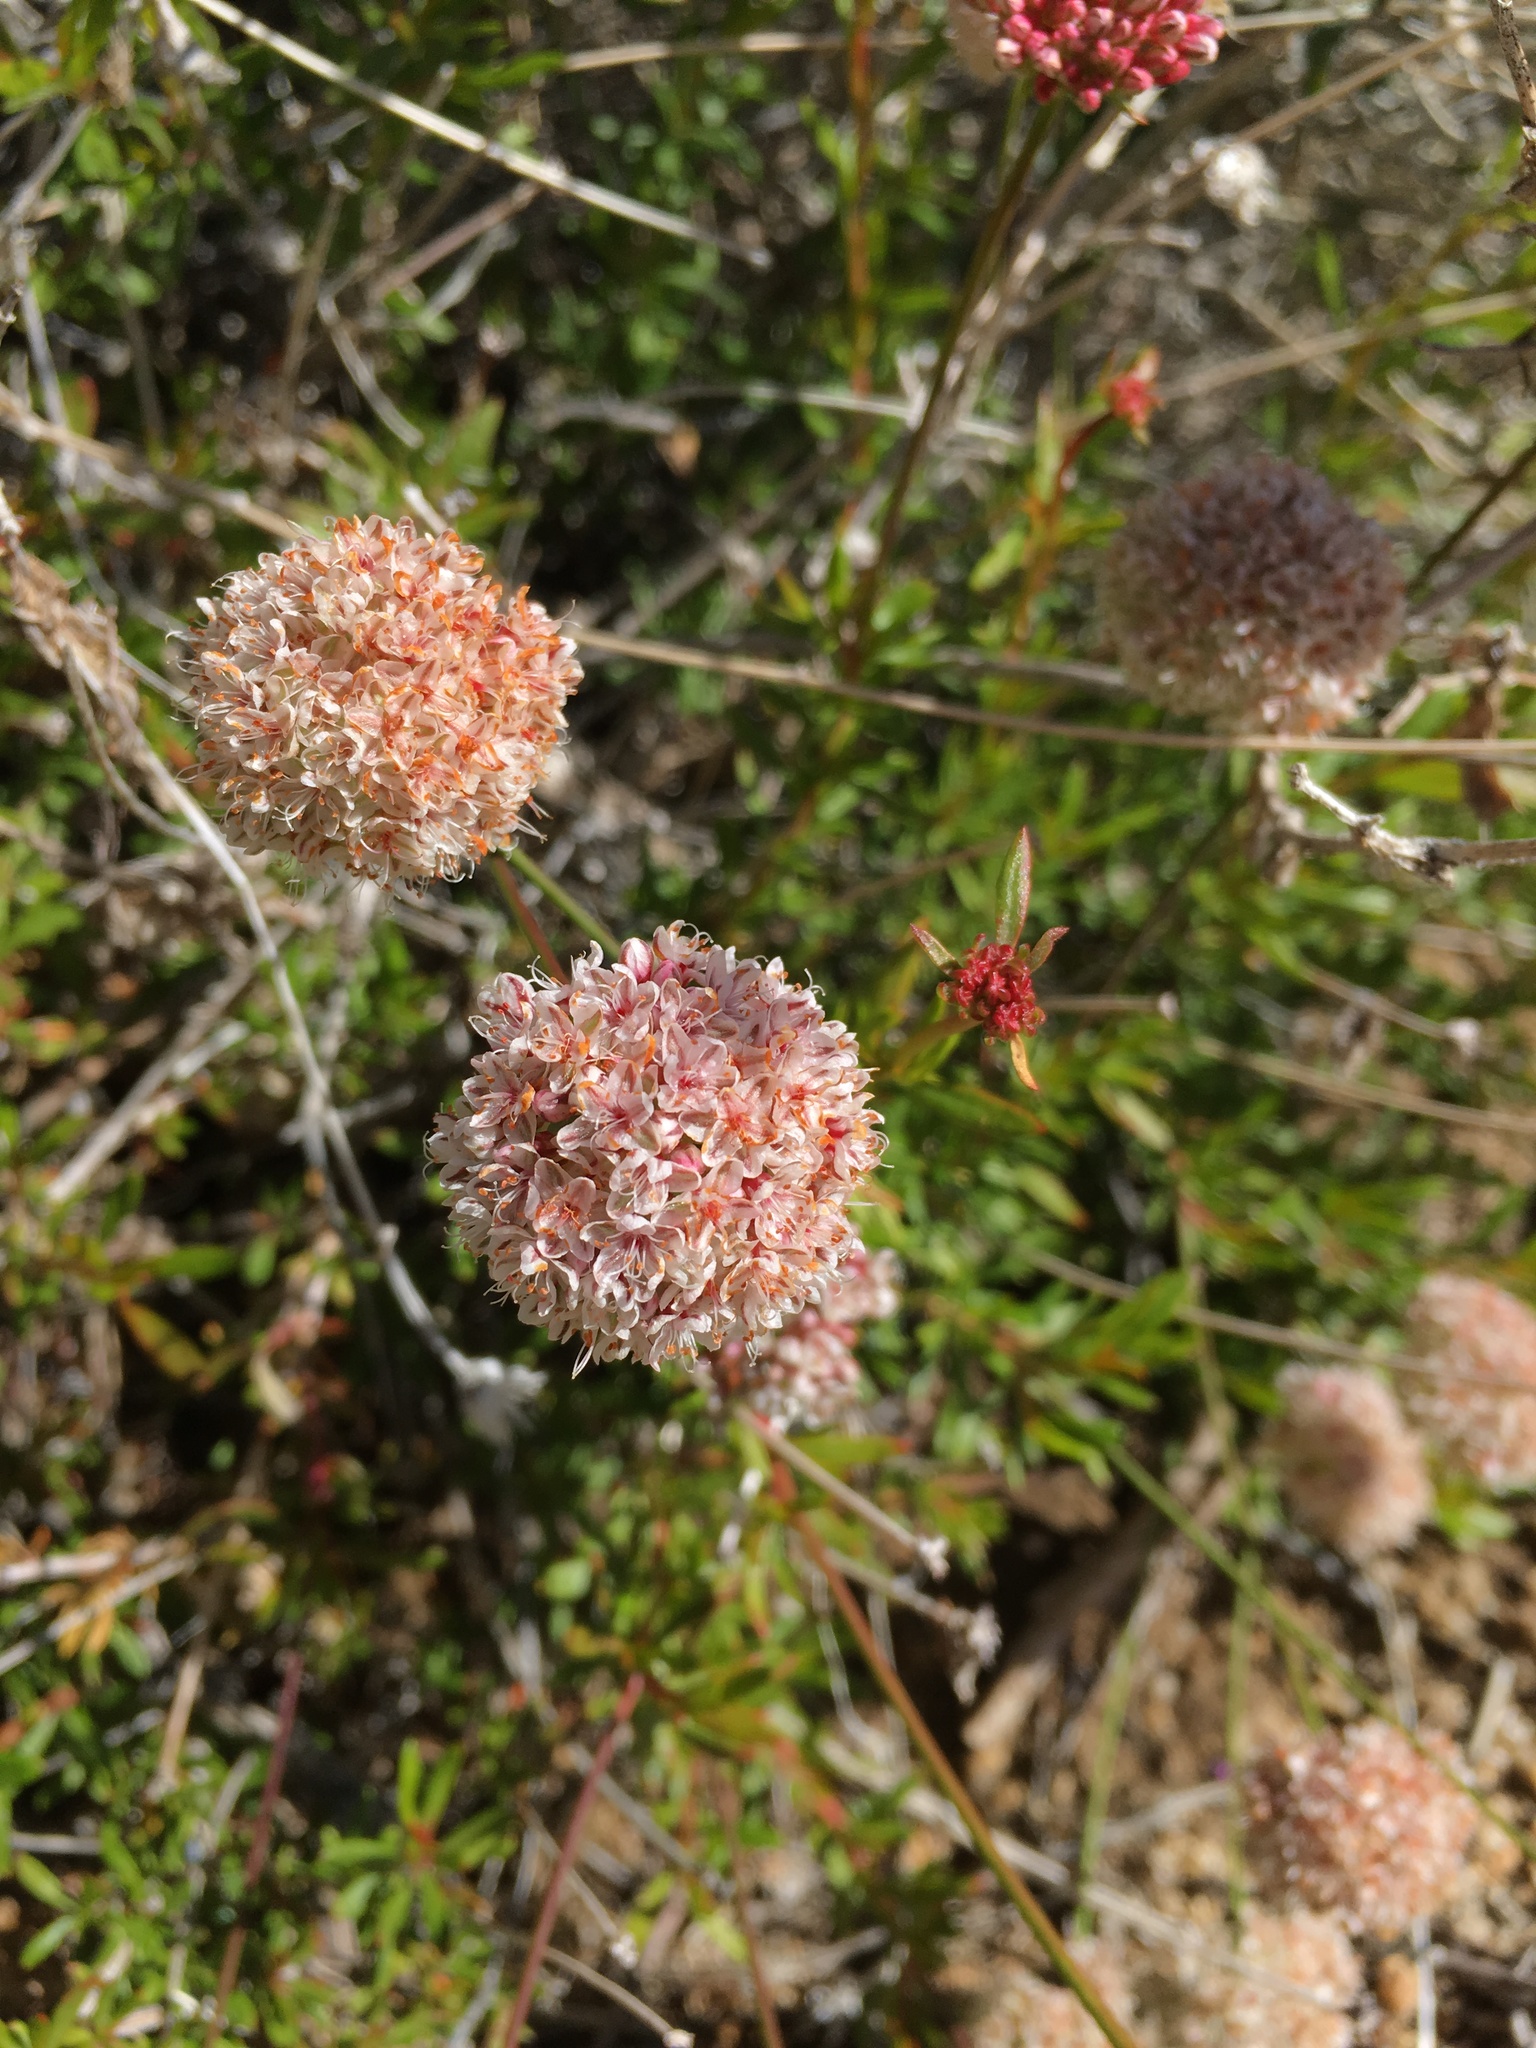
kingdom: Plantae
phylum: Tracheophyta
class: Magnoliopsida
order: Caryophyllales
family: Polygonaceae
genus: Eriogonum
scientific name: Eriogonum fasciculatum
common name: California wild buckwheat
